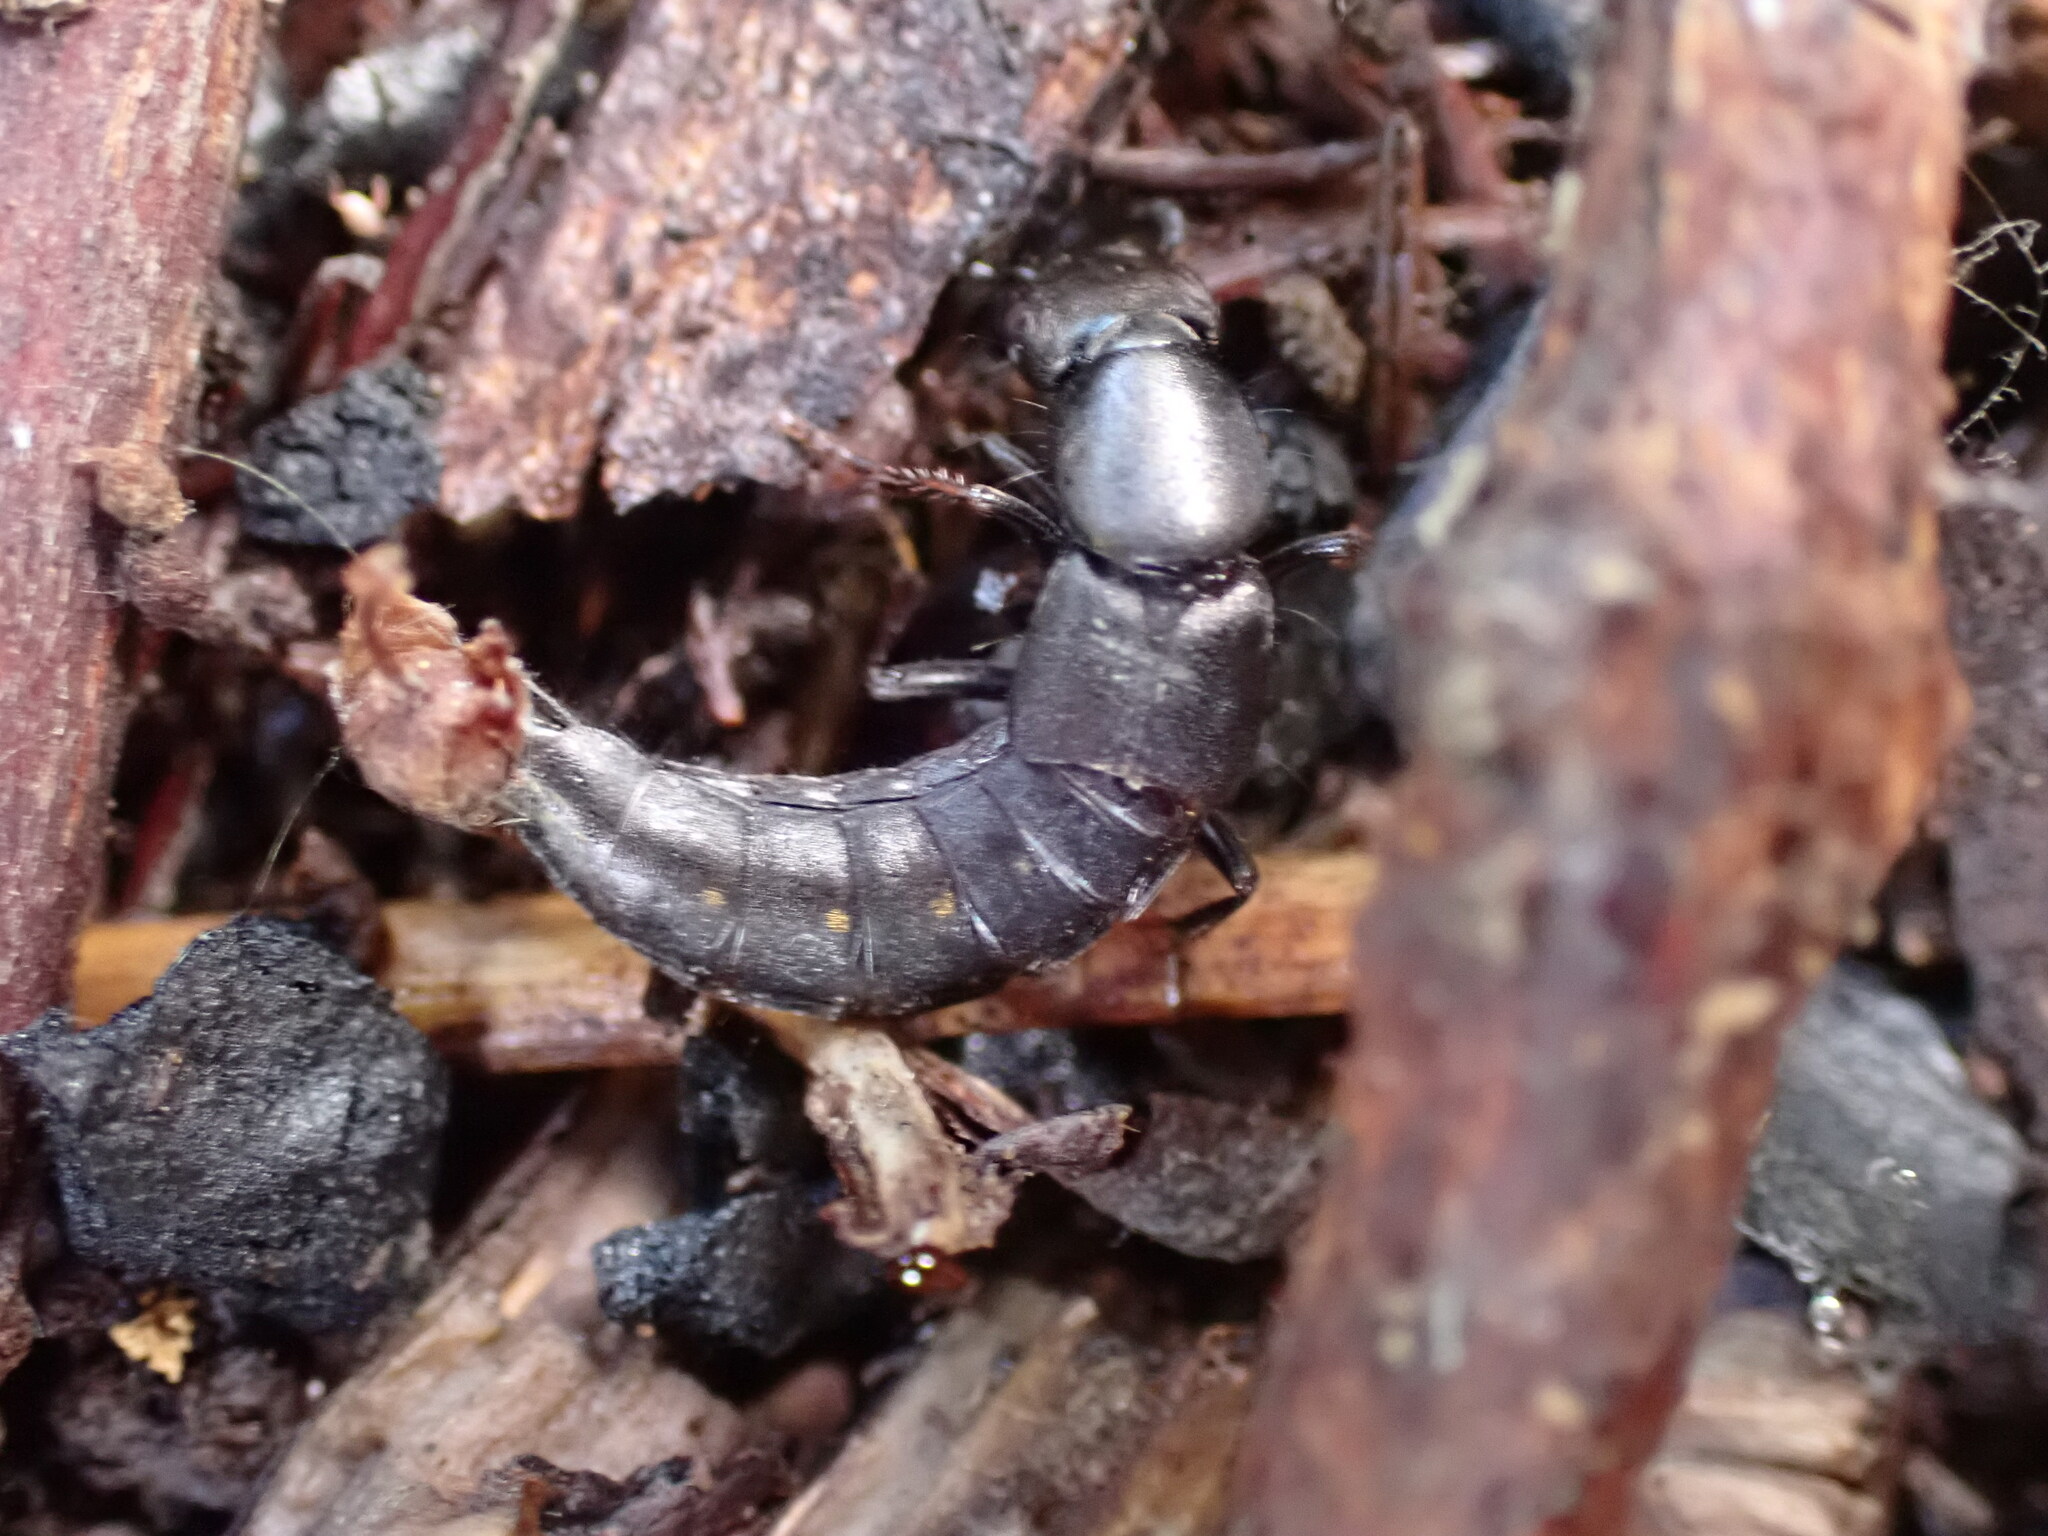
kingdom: Animalia
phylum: Arthropoda
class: Insecta
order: Coleoptera
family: Staphylinidae
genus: Ocypus
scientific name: Ocypus aethiops
